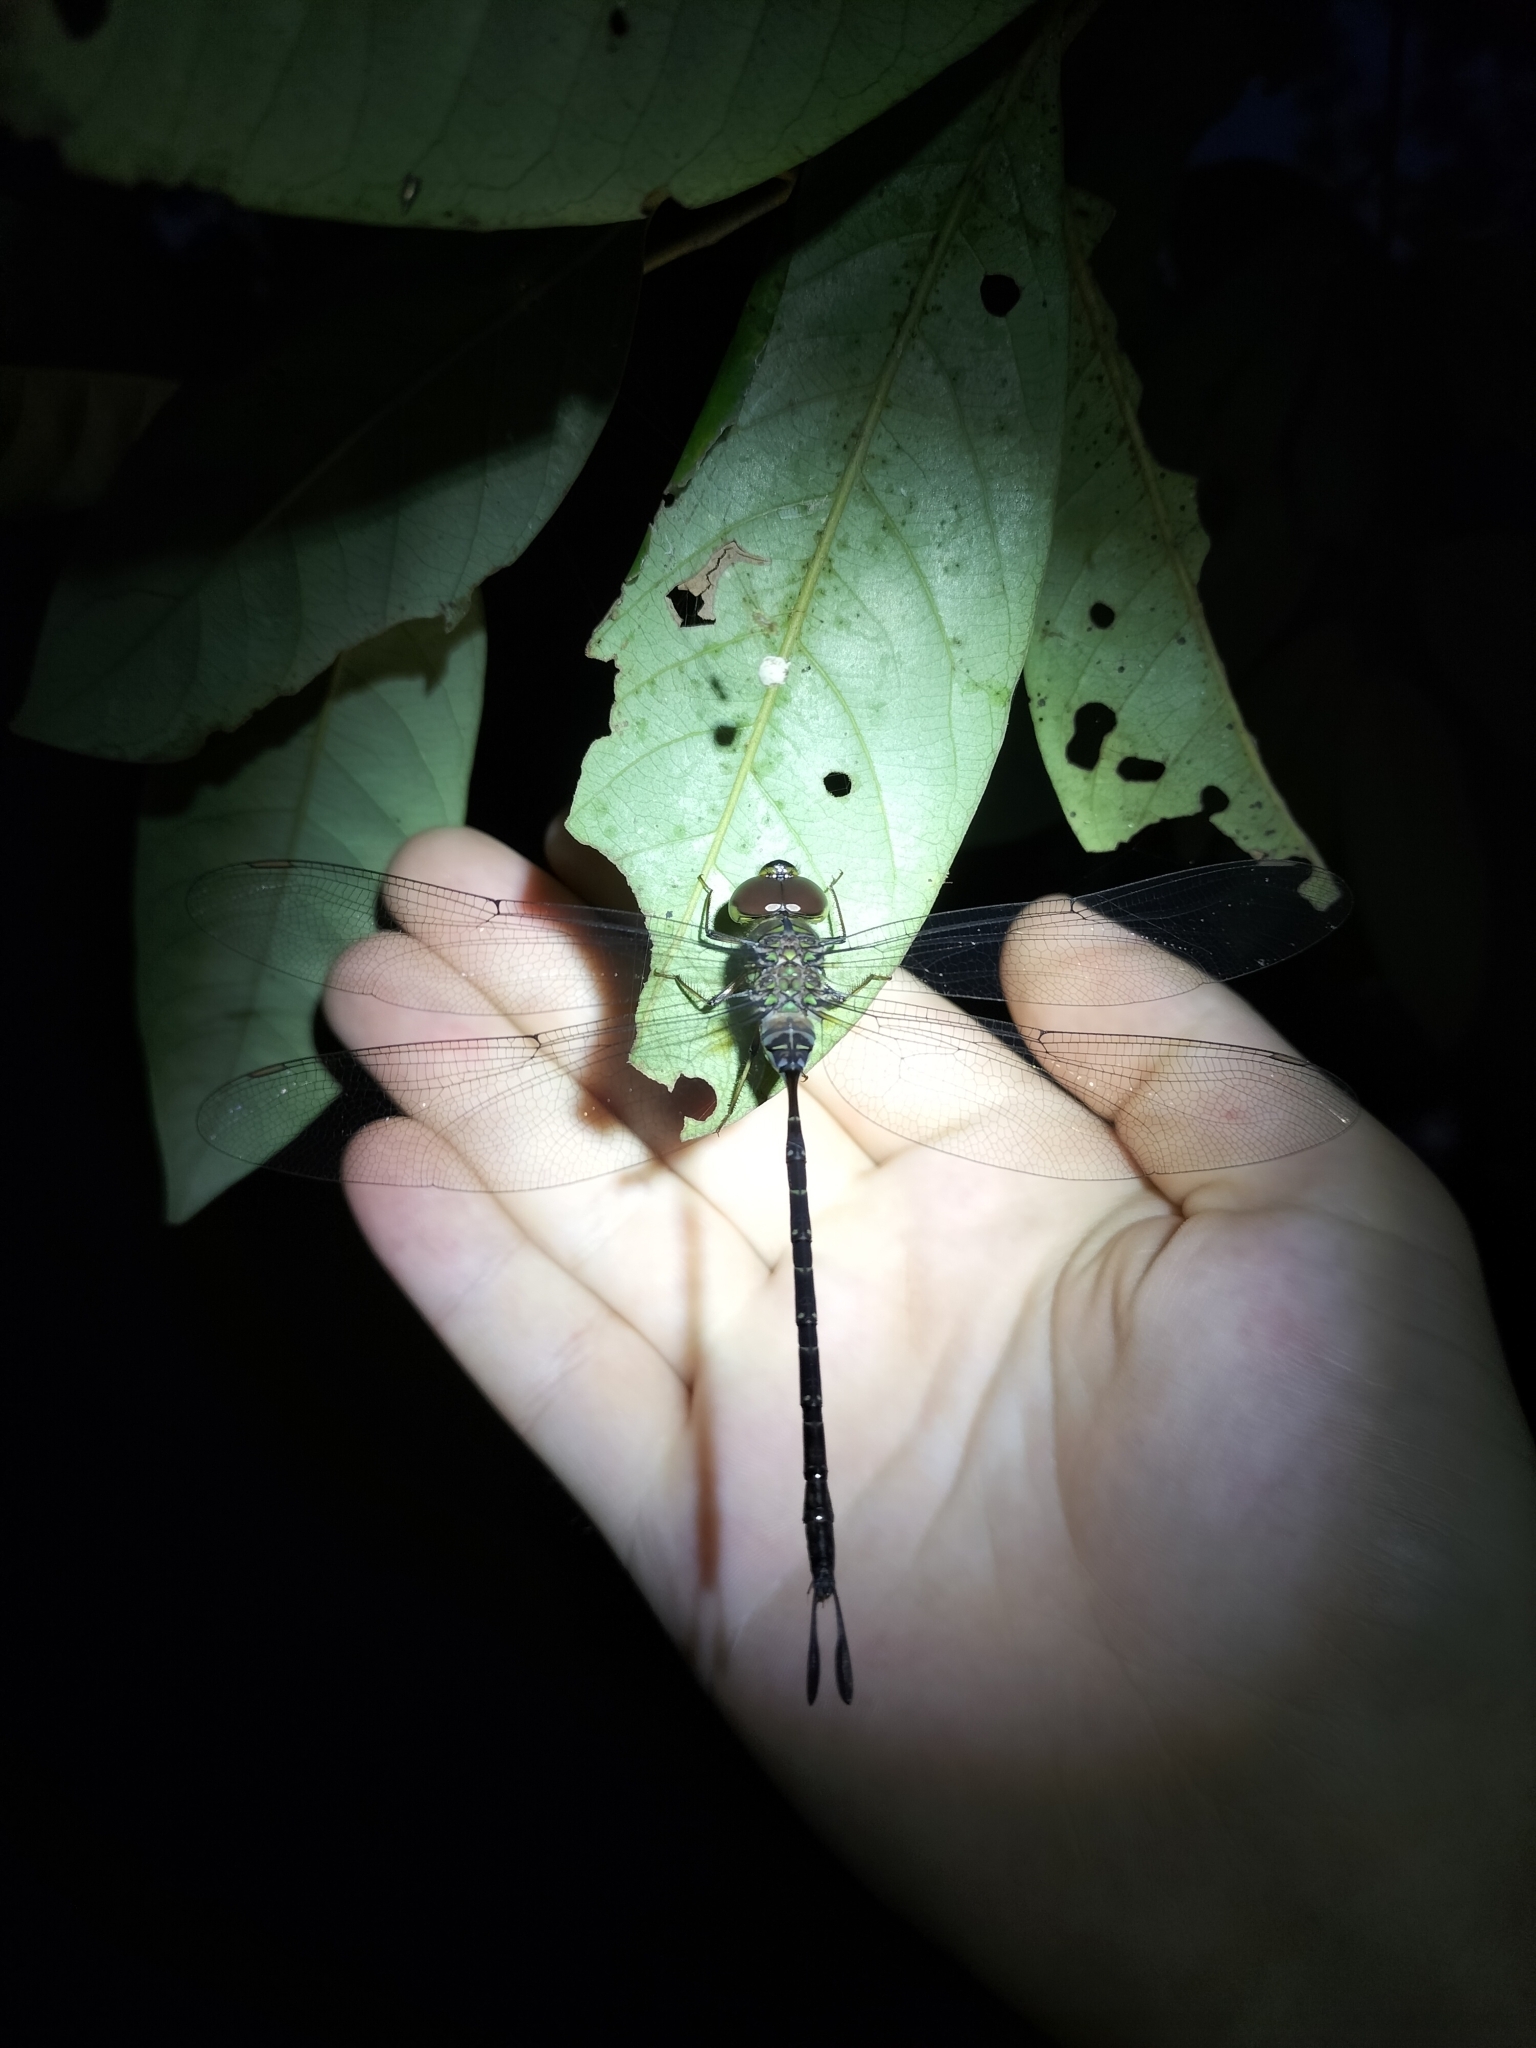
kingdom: Animalia
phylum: Arthropoda
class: Insecta
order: Odonata
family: Aeshnidae
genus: Gynacantha
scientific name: Gynacantha mocsaryi
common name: Paddle-tipped duskhawker
